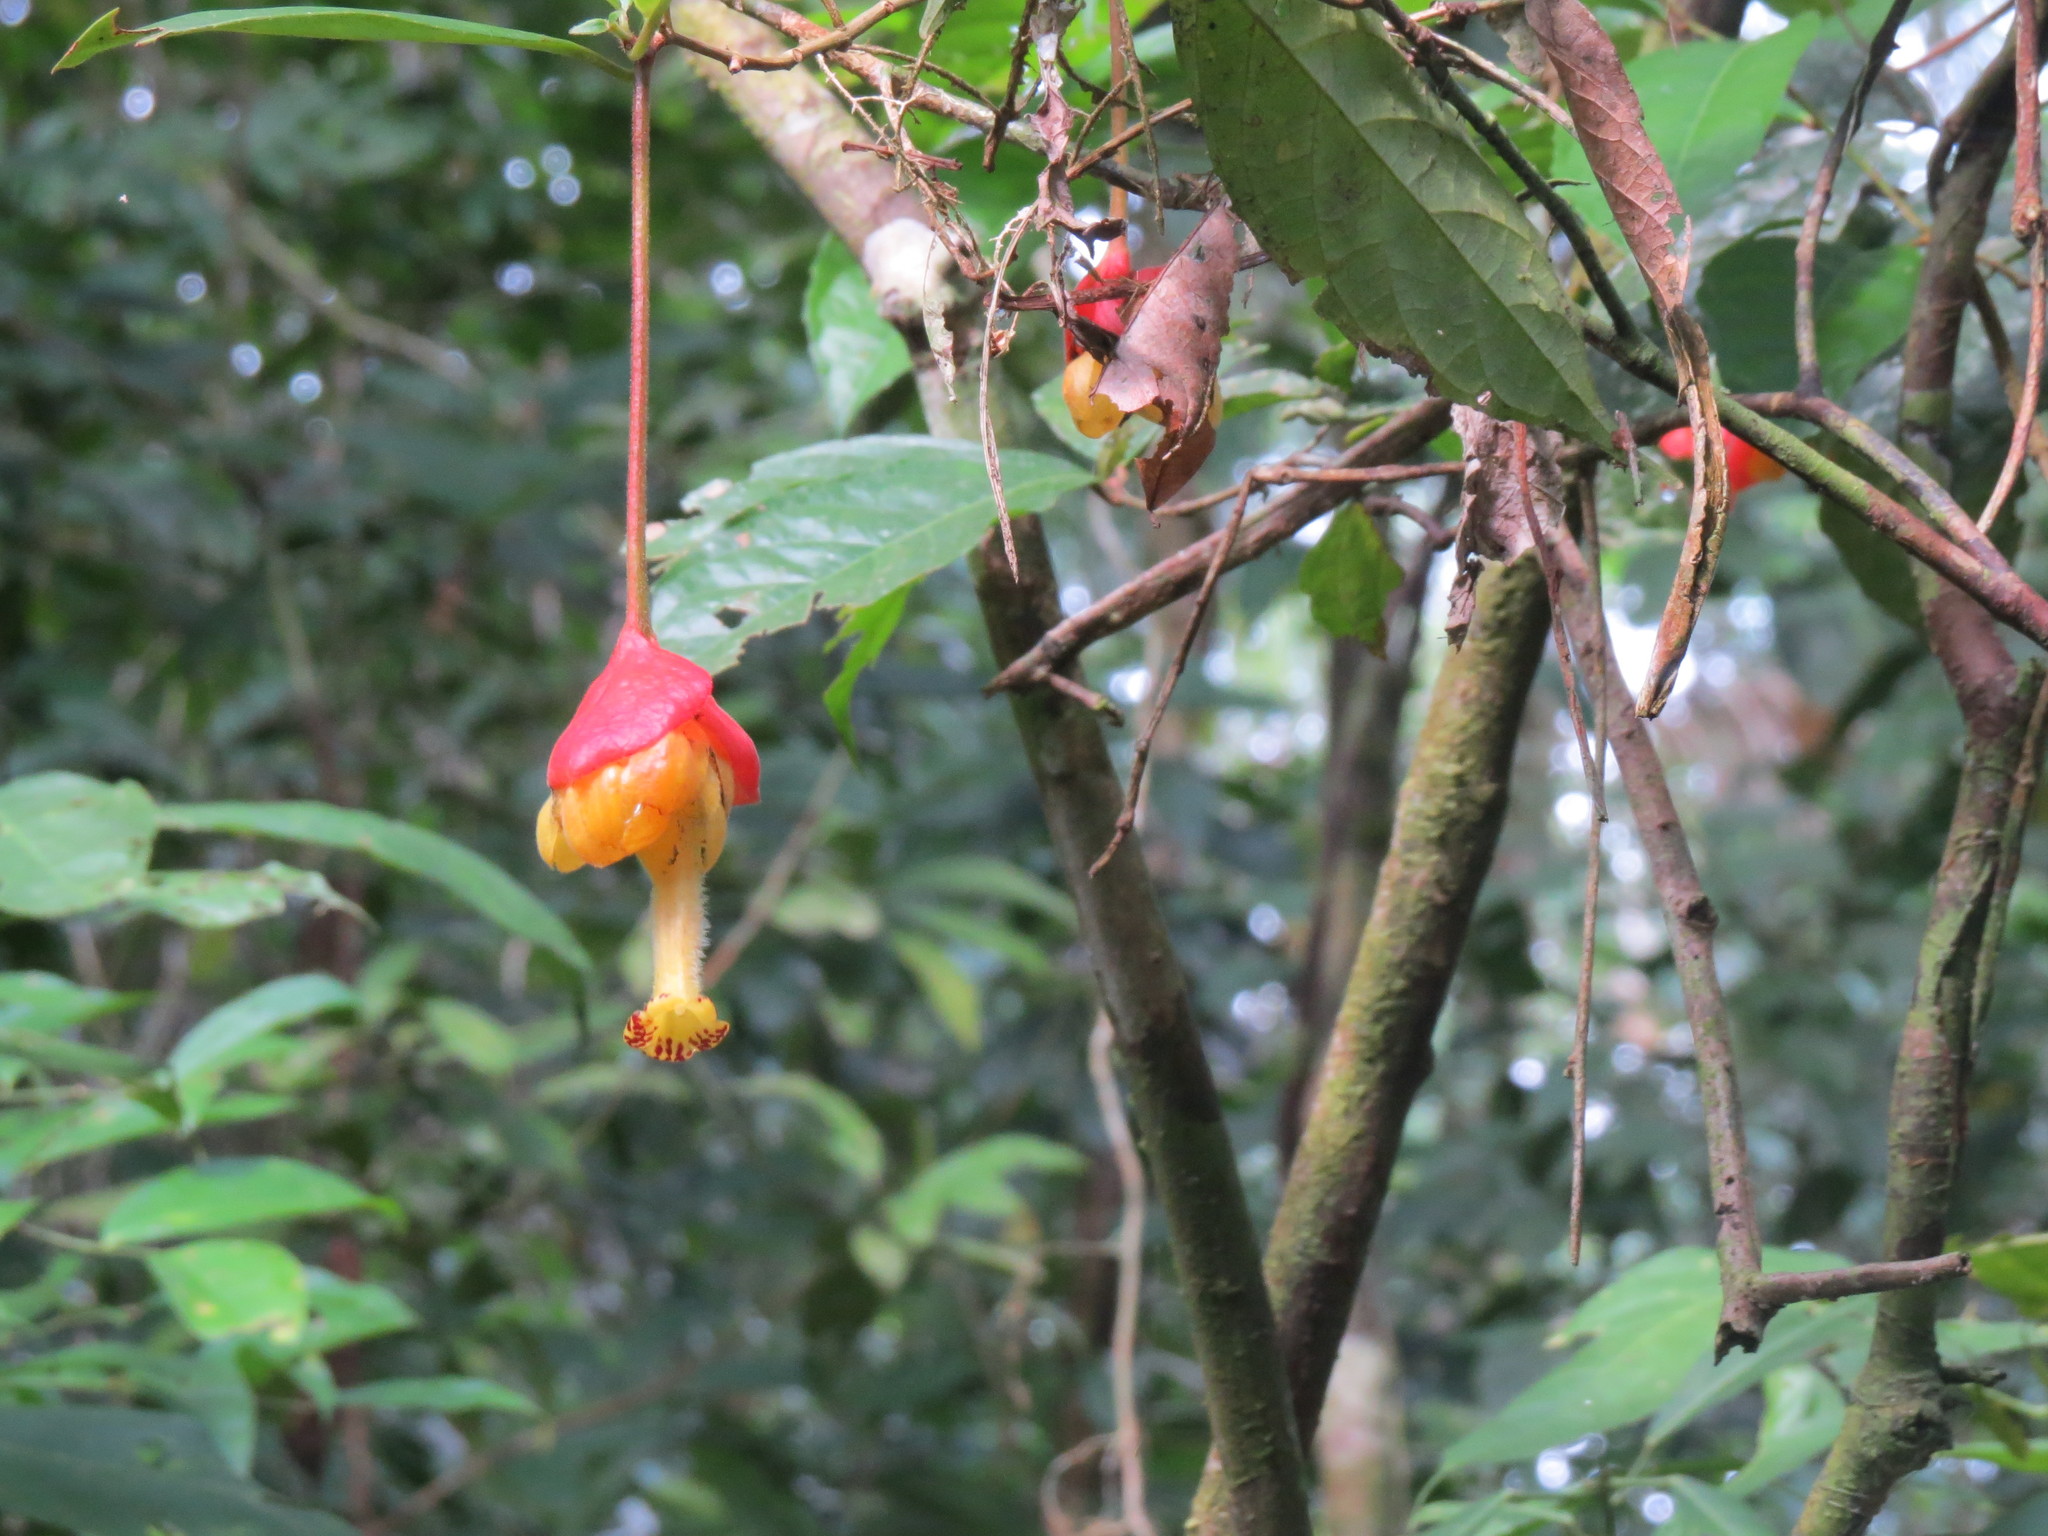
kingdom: Plantae
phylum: Tracheophyta
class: Magnoliopsida
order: Lamiales
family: Gesneriaceae
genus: Drymonia
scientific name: Drymonia pendula
